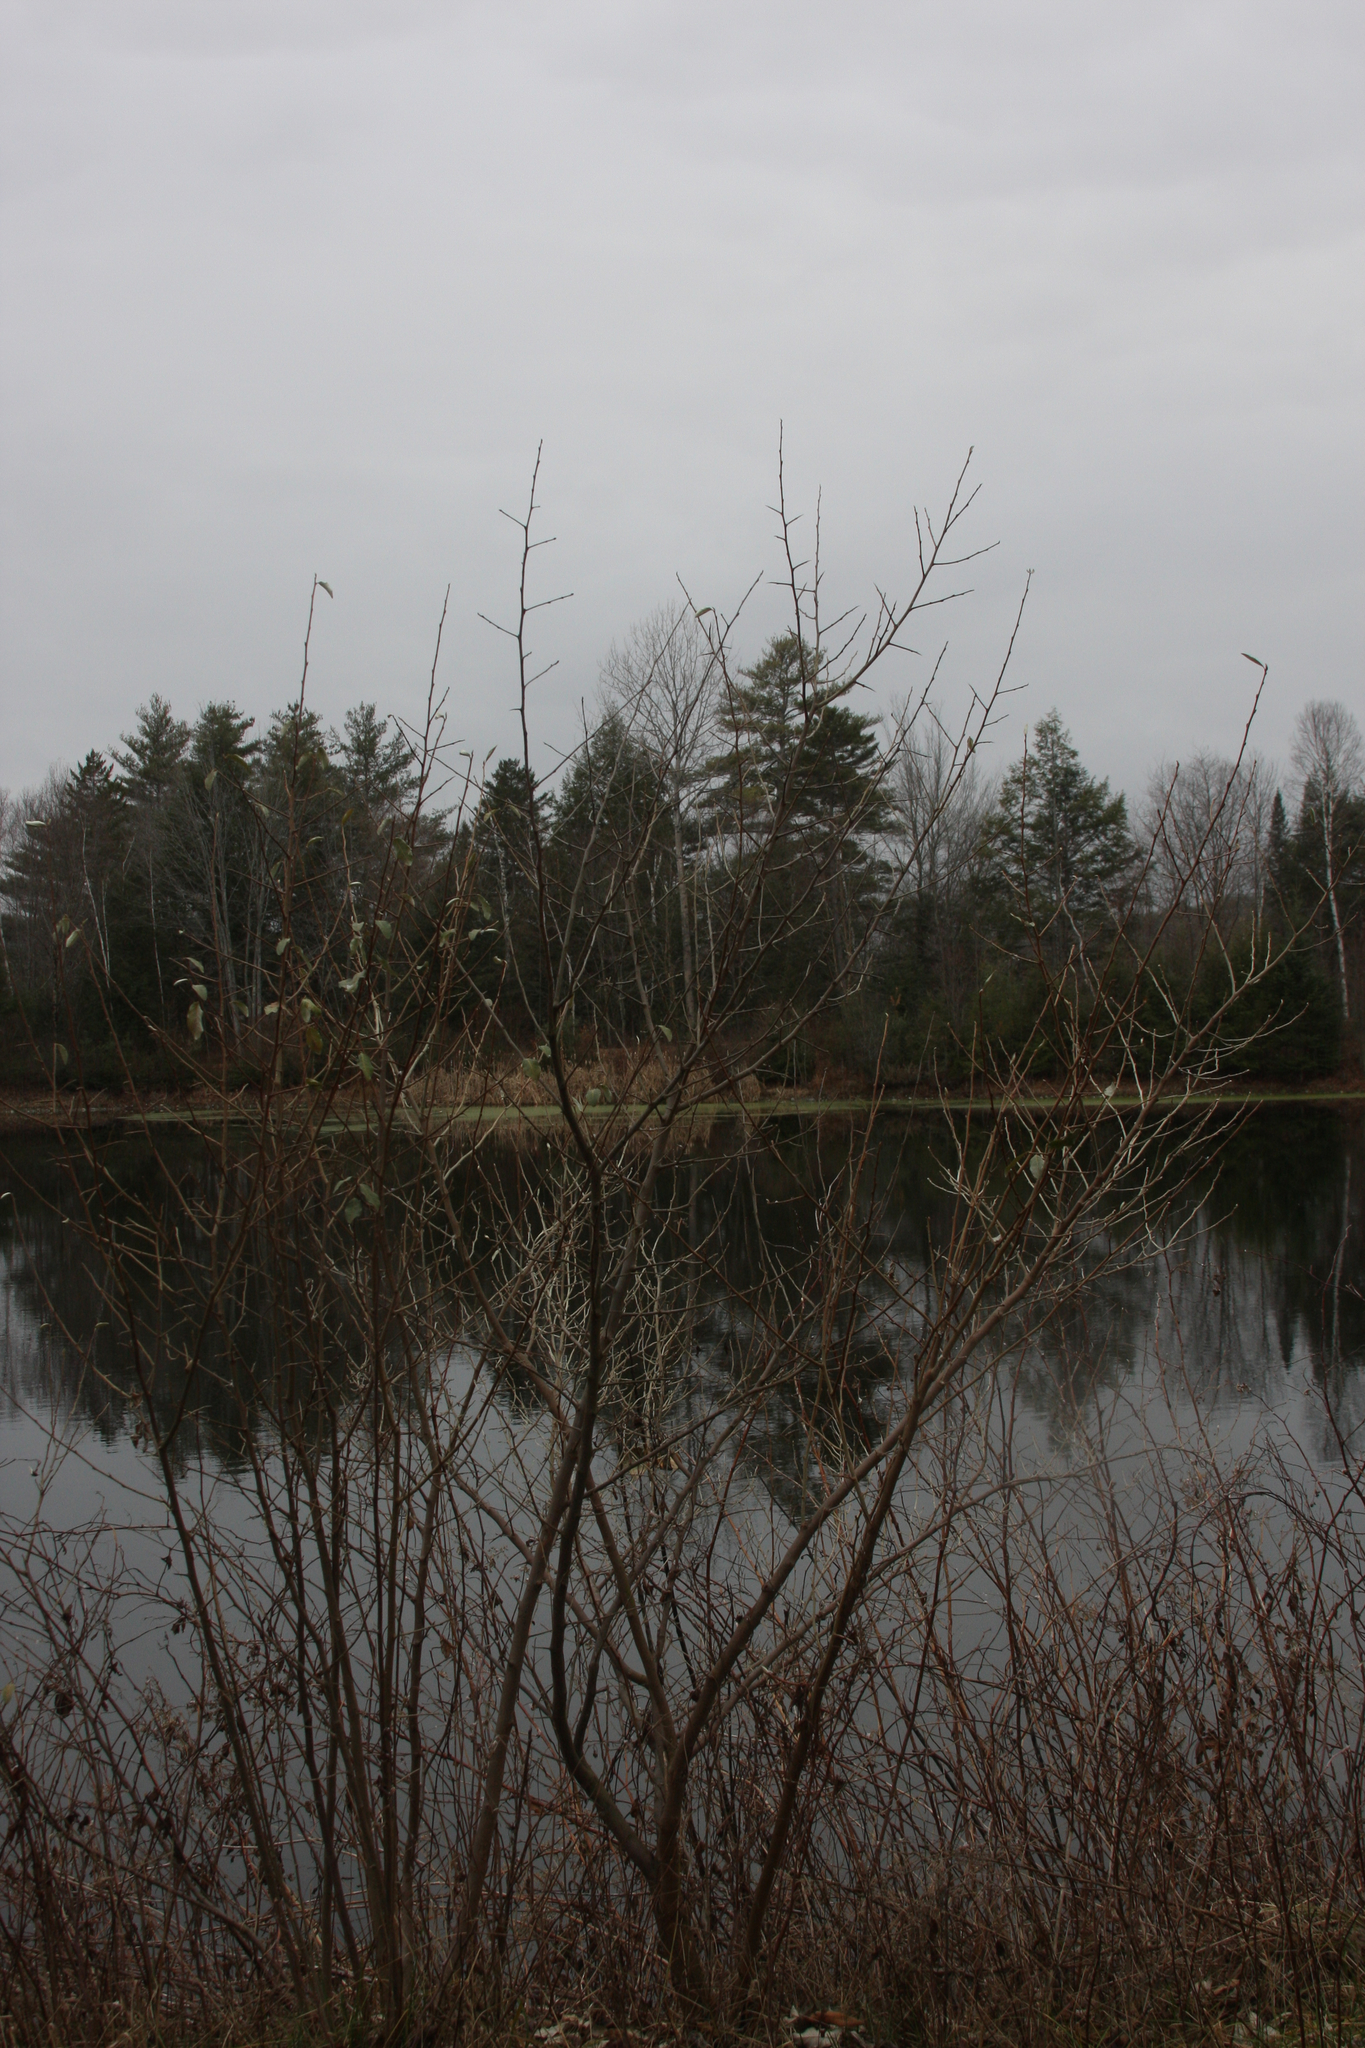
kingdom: Plantae
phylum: Tracheophyta
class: Magnoliopsida
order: Rosales
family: Elaeagnaceae
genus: Elaeagnus
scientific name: Elaeagnus umbellata
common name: Autumn olive
